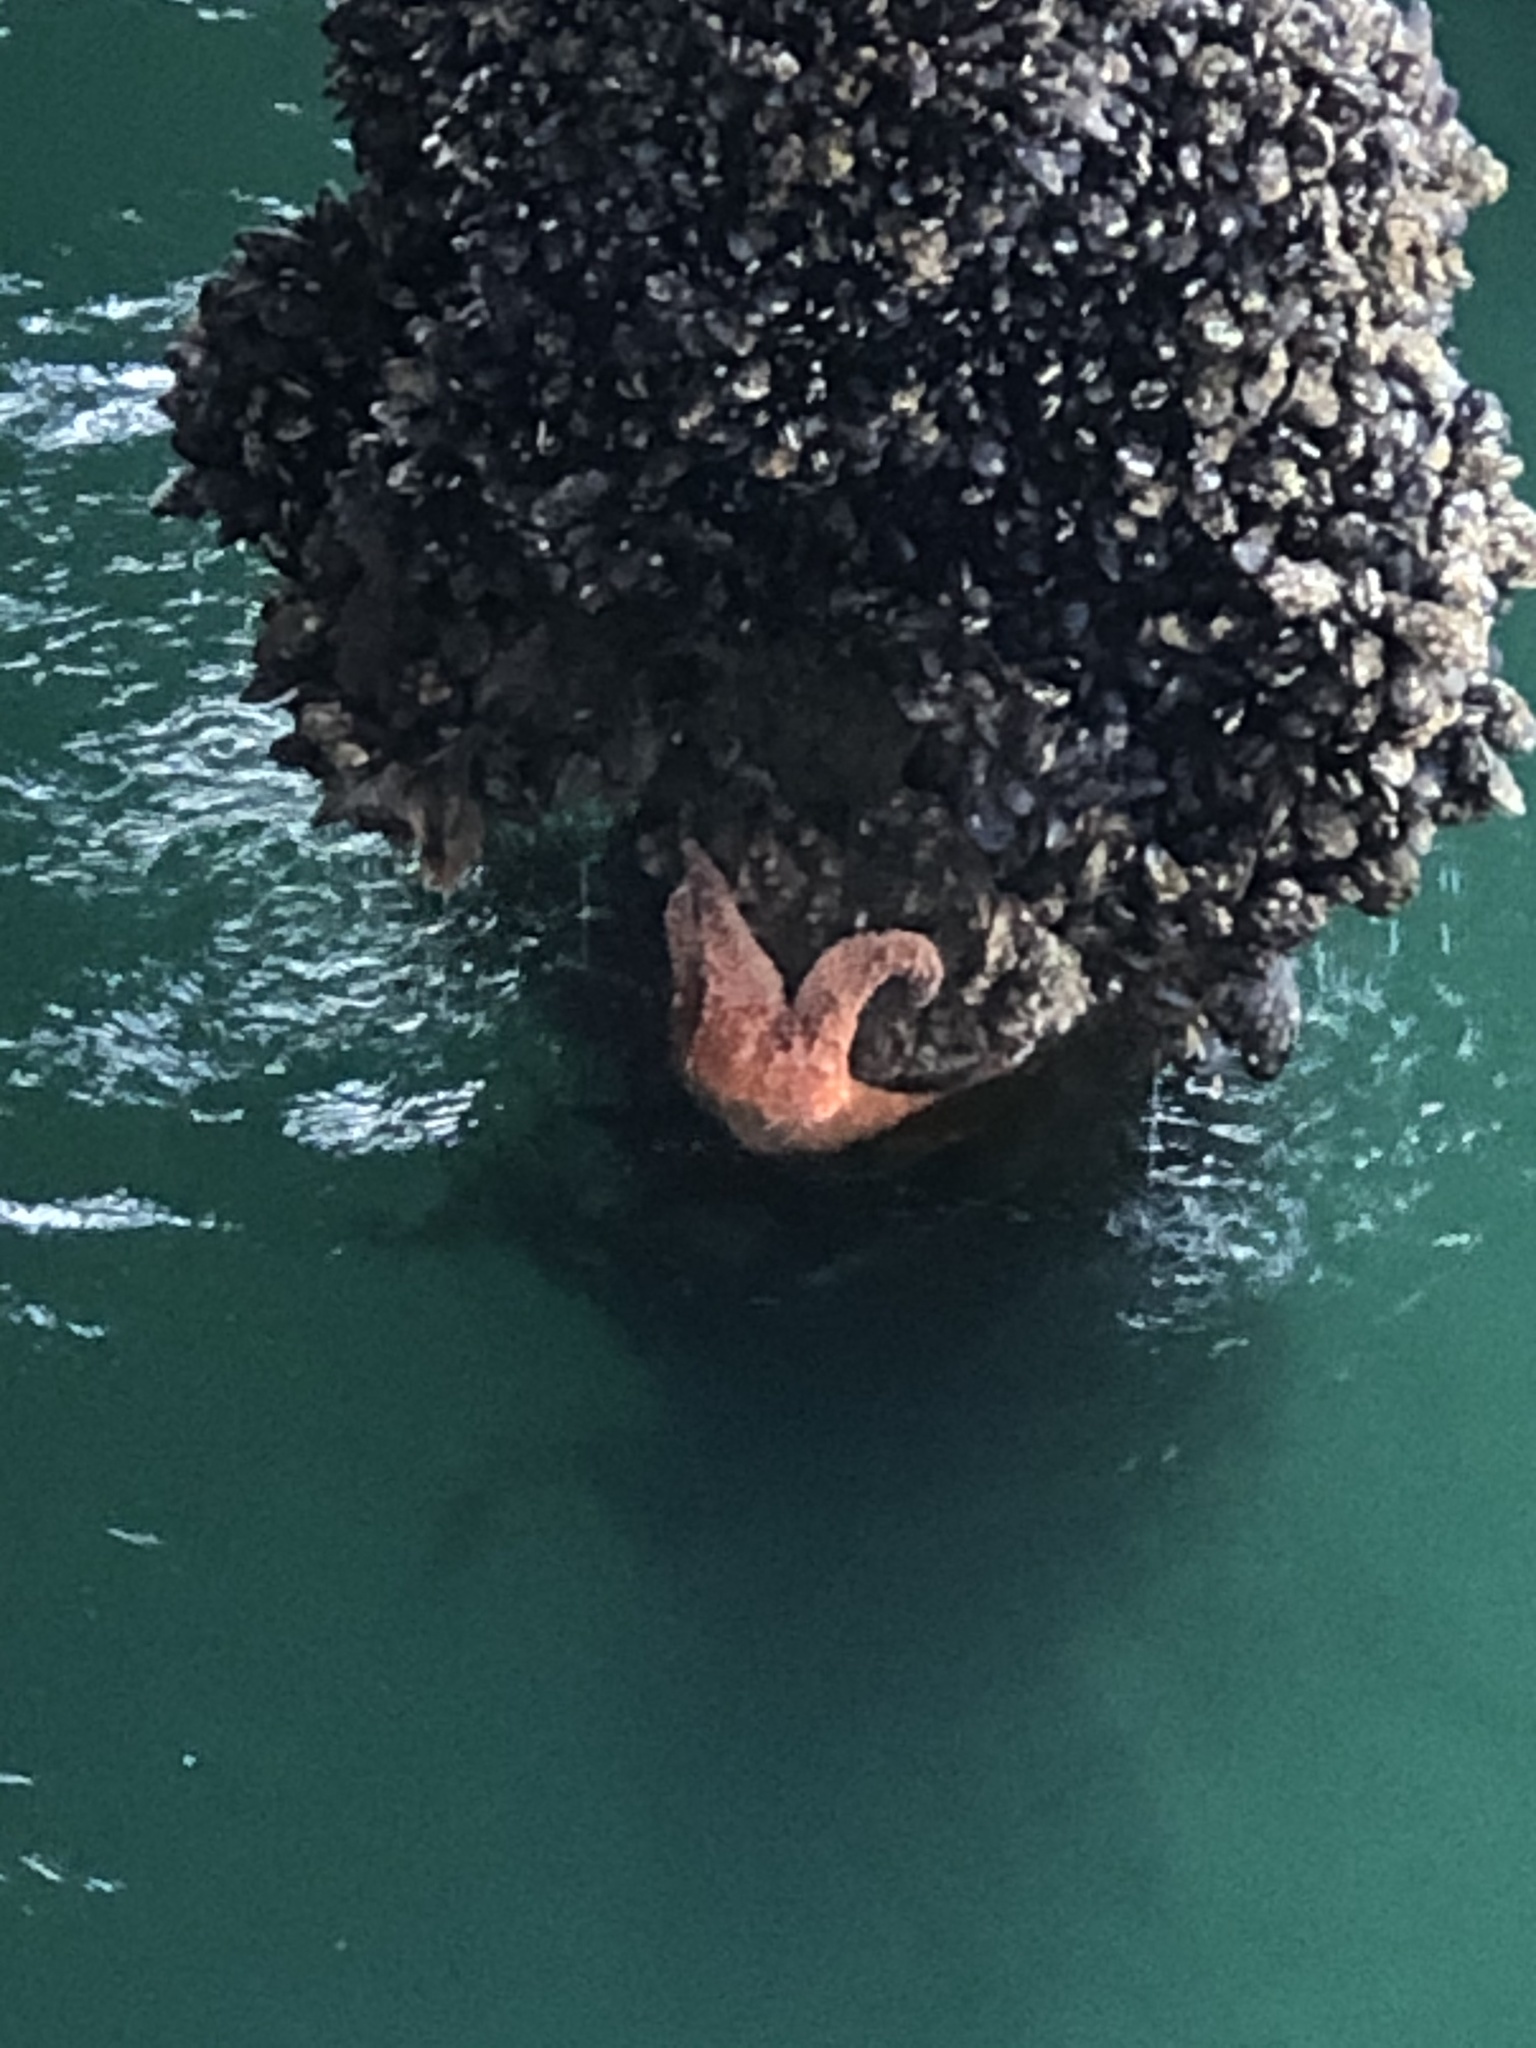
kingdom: Animalia
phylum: Echinodermata
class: Asteroidea
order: Forcipulatida
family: Asteriidae
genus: Pisaster
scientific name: Pisaster ochraceus
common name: Ochre stars
